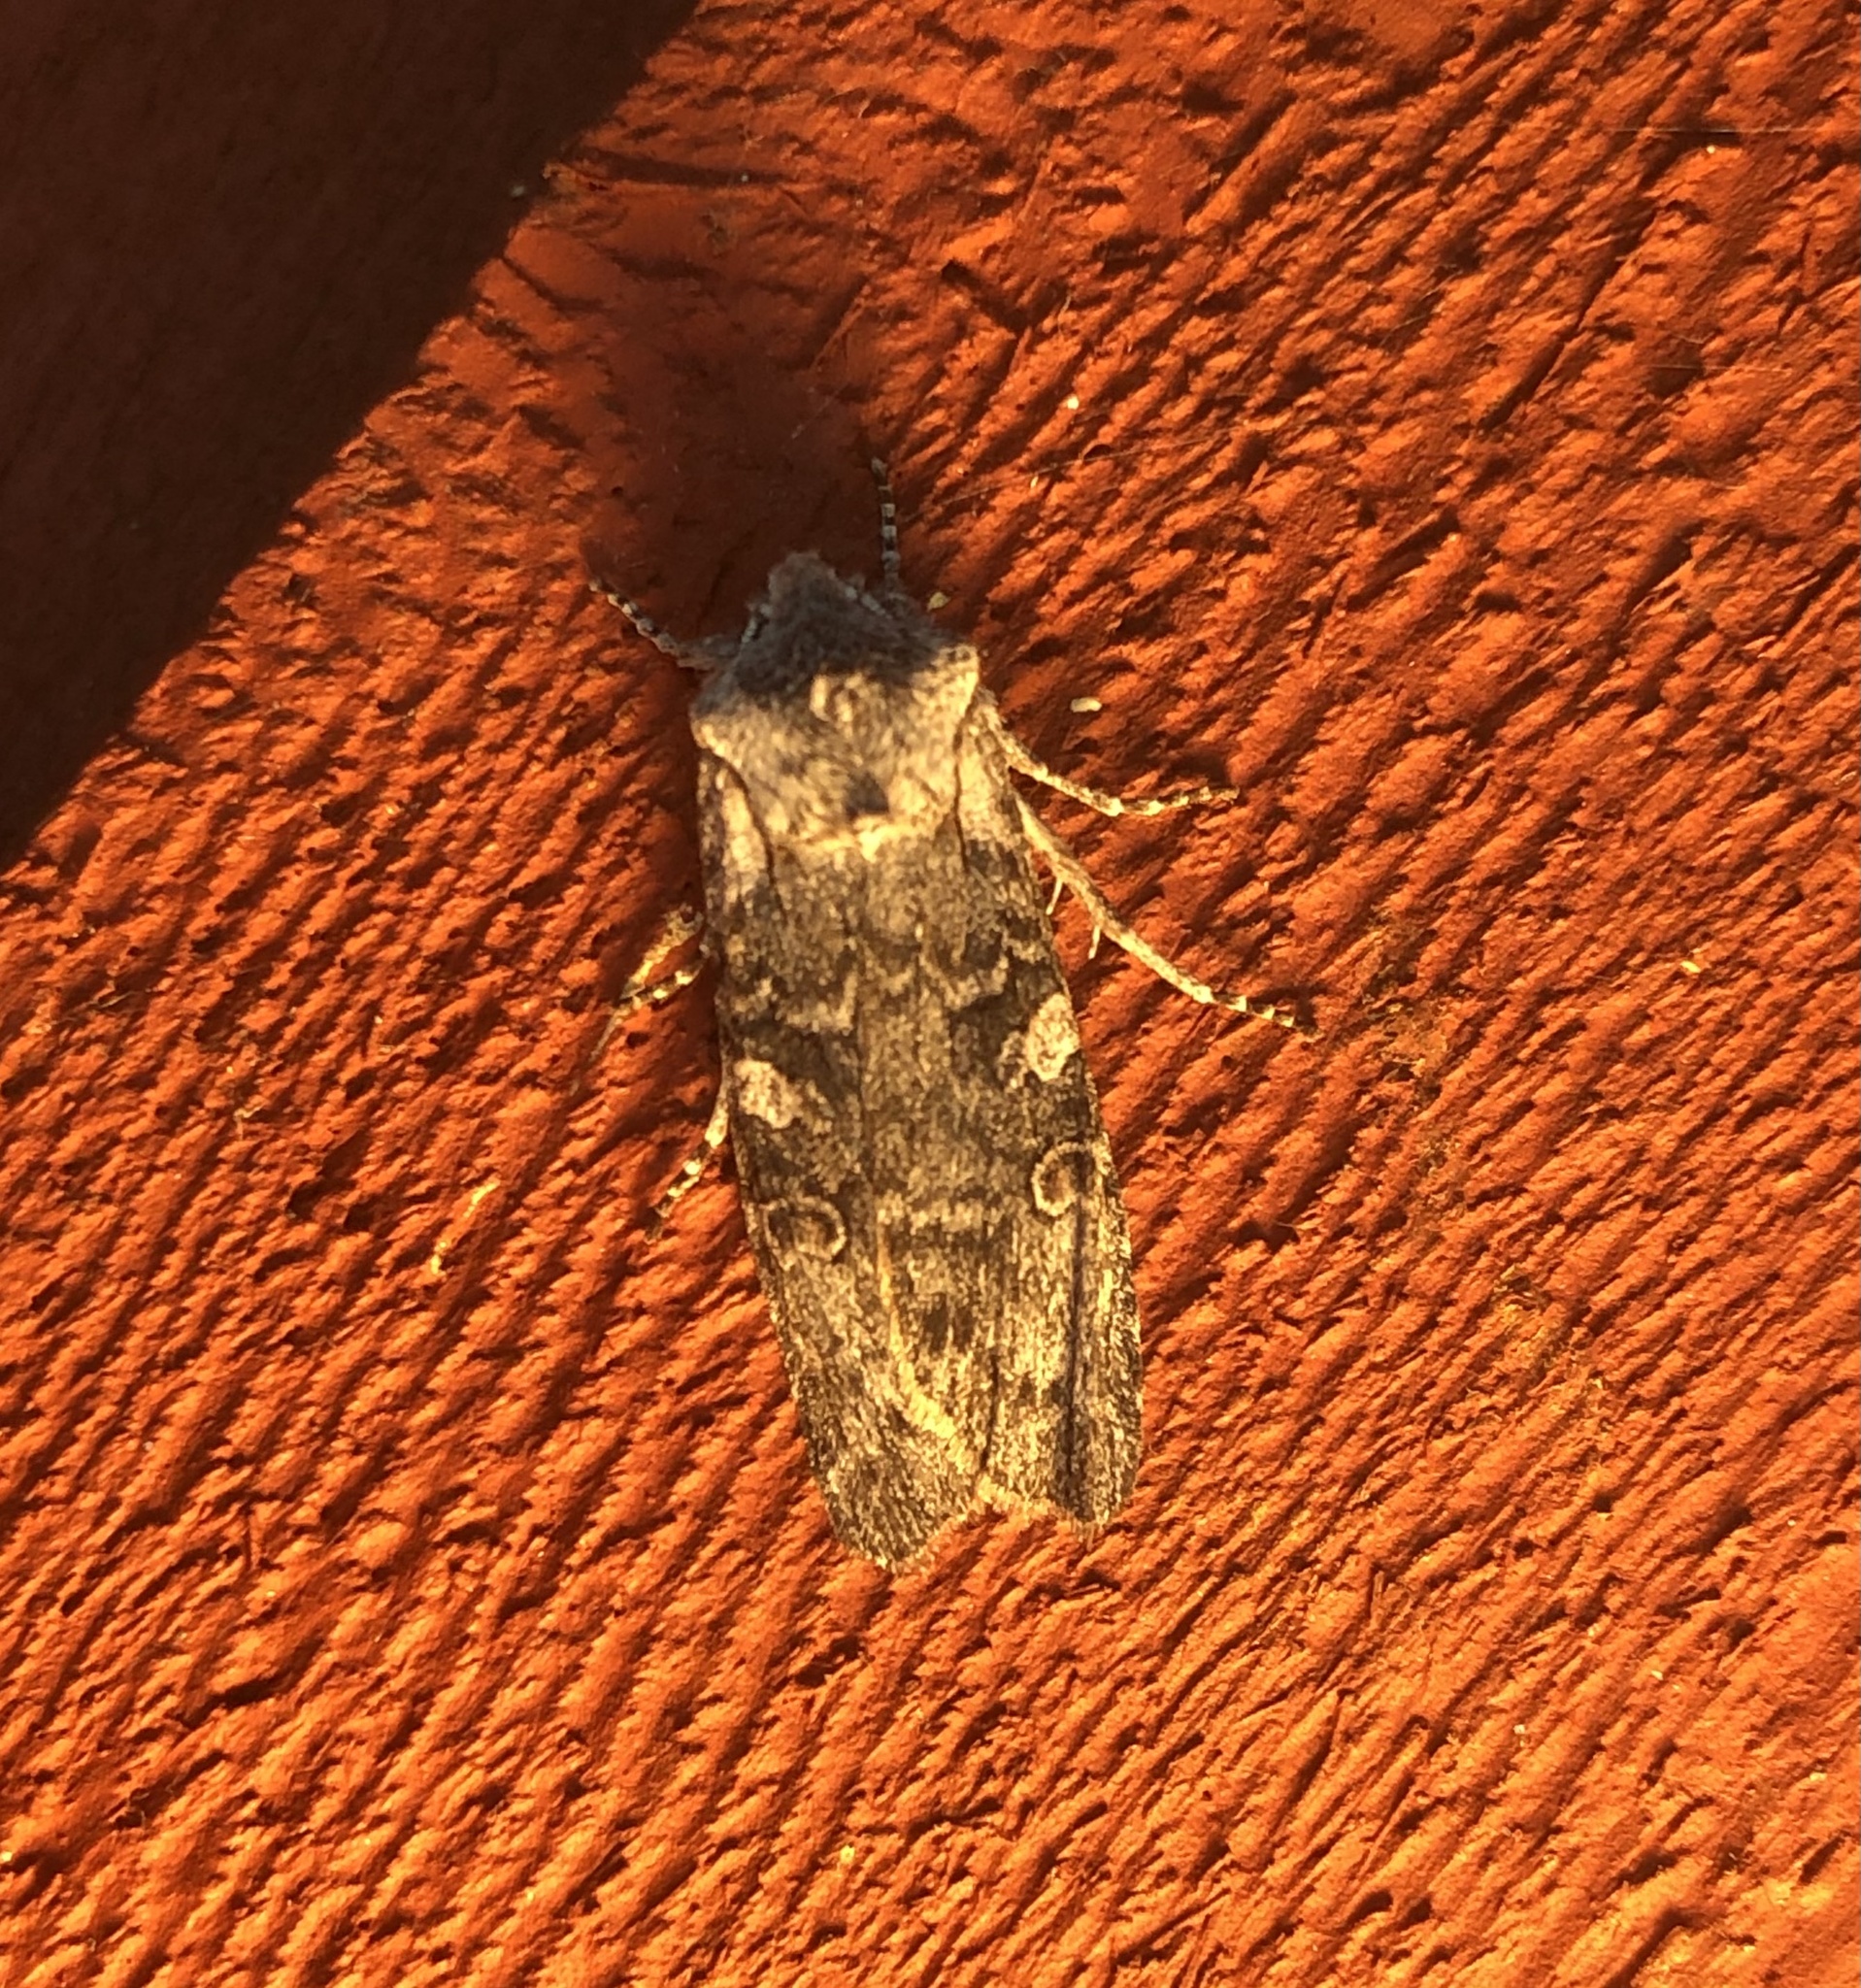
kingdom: Animalia
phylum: Arthropoda
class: Insecta
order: Lepidoptera
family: Noctuidae
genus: Lithophane
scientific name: Lithophane pertorrida
